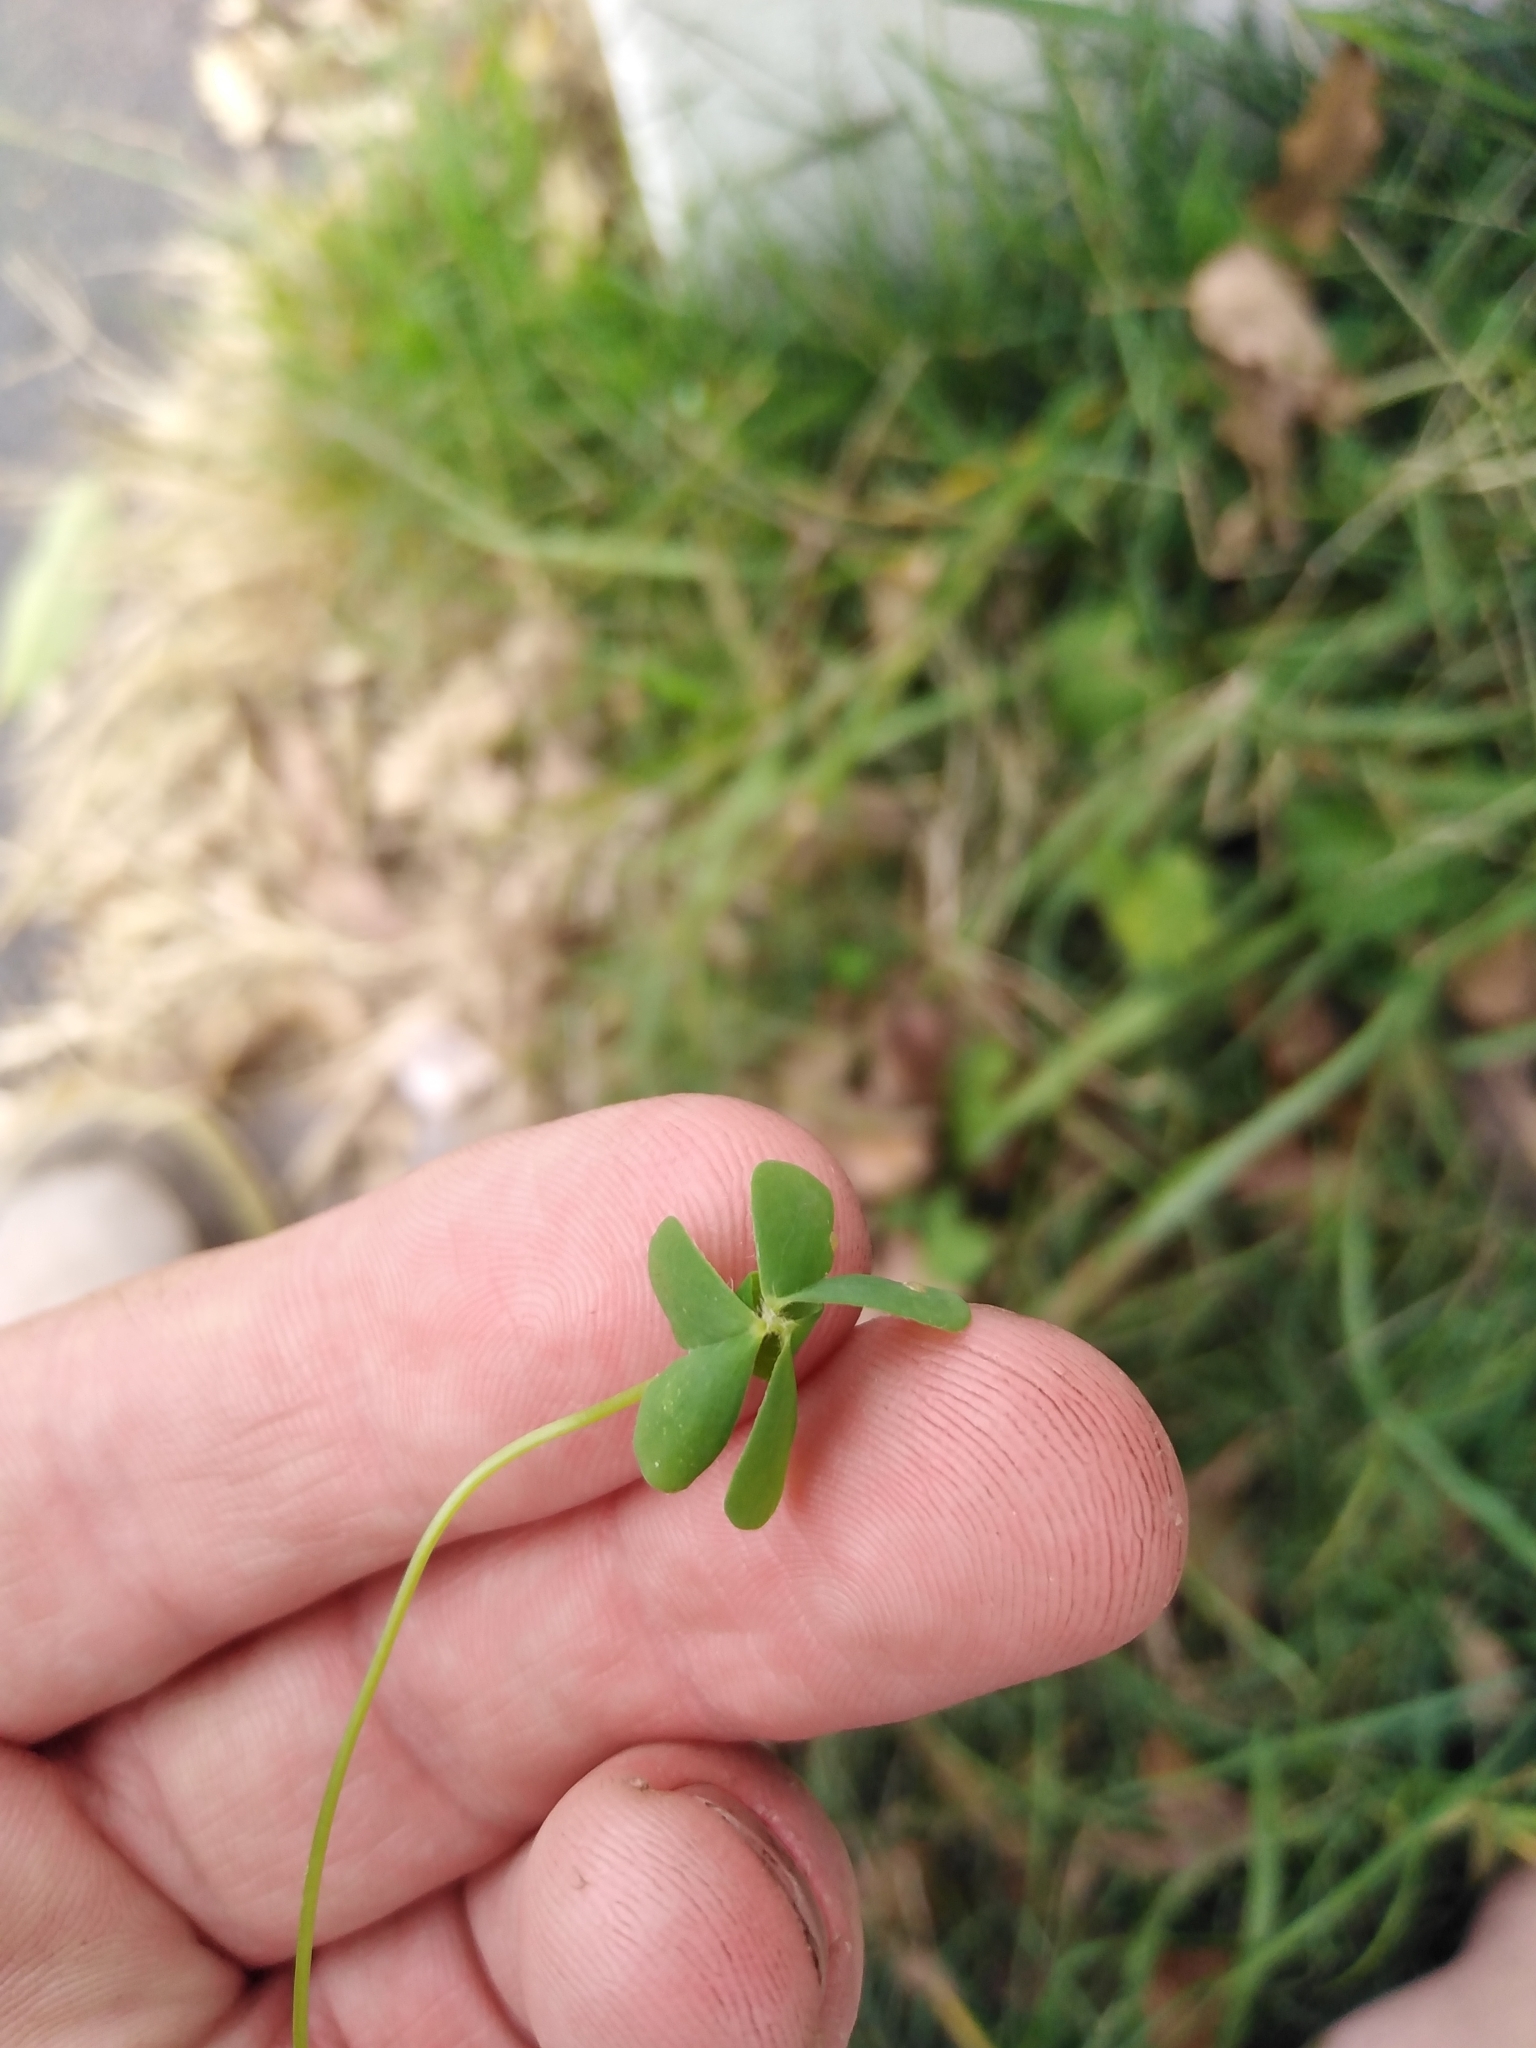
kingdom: Plantae
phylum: Tracheophyta
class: Magnoliopsida
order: Oxalidales
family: Oxalidaceae
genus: Oxalis
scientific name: Oxalis caprina
